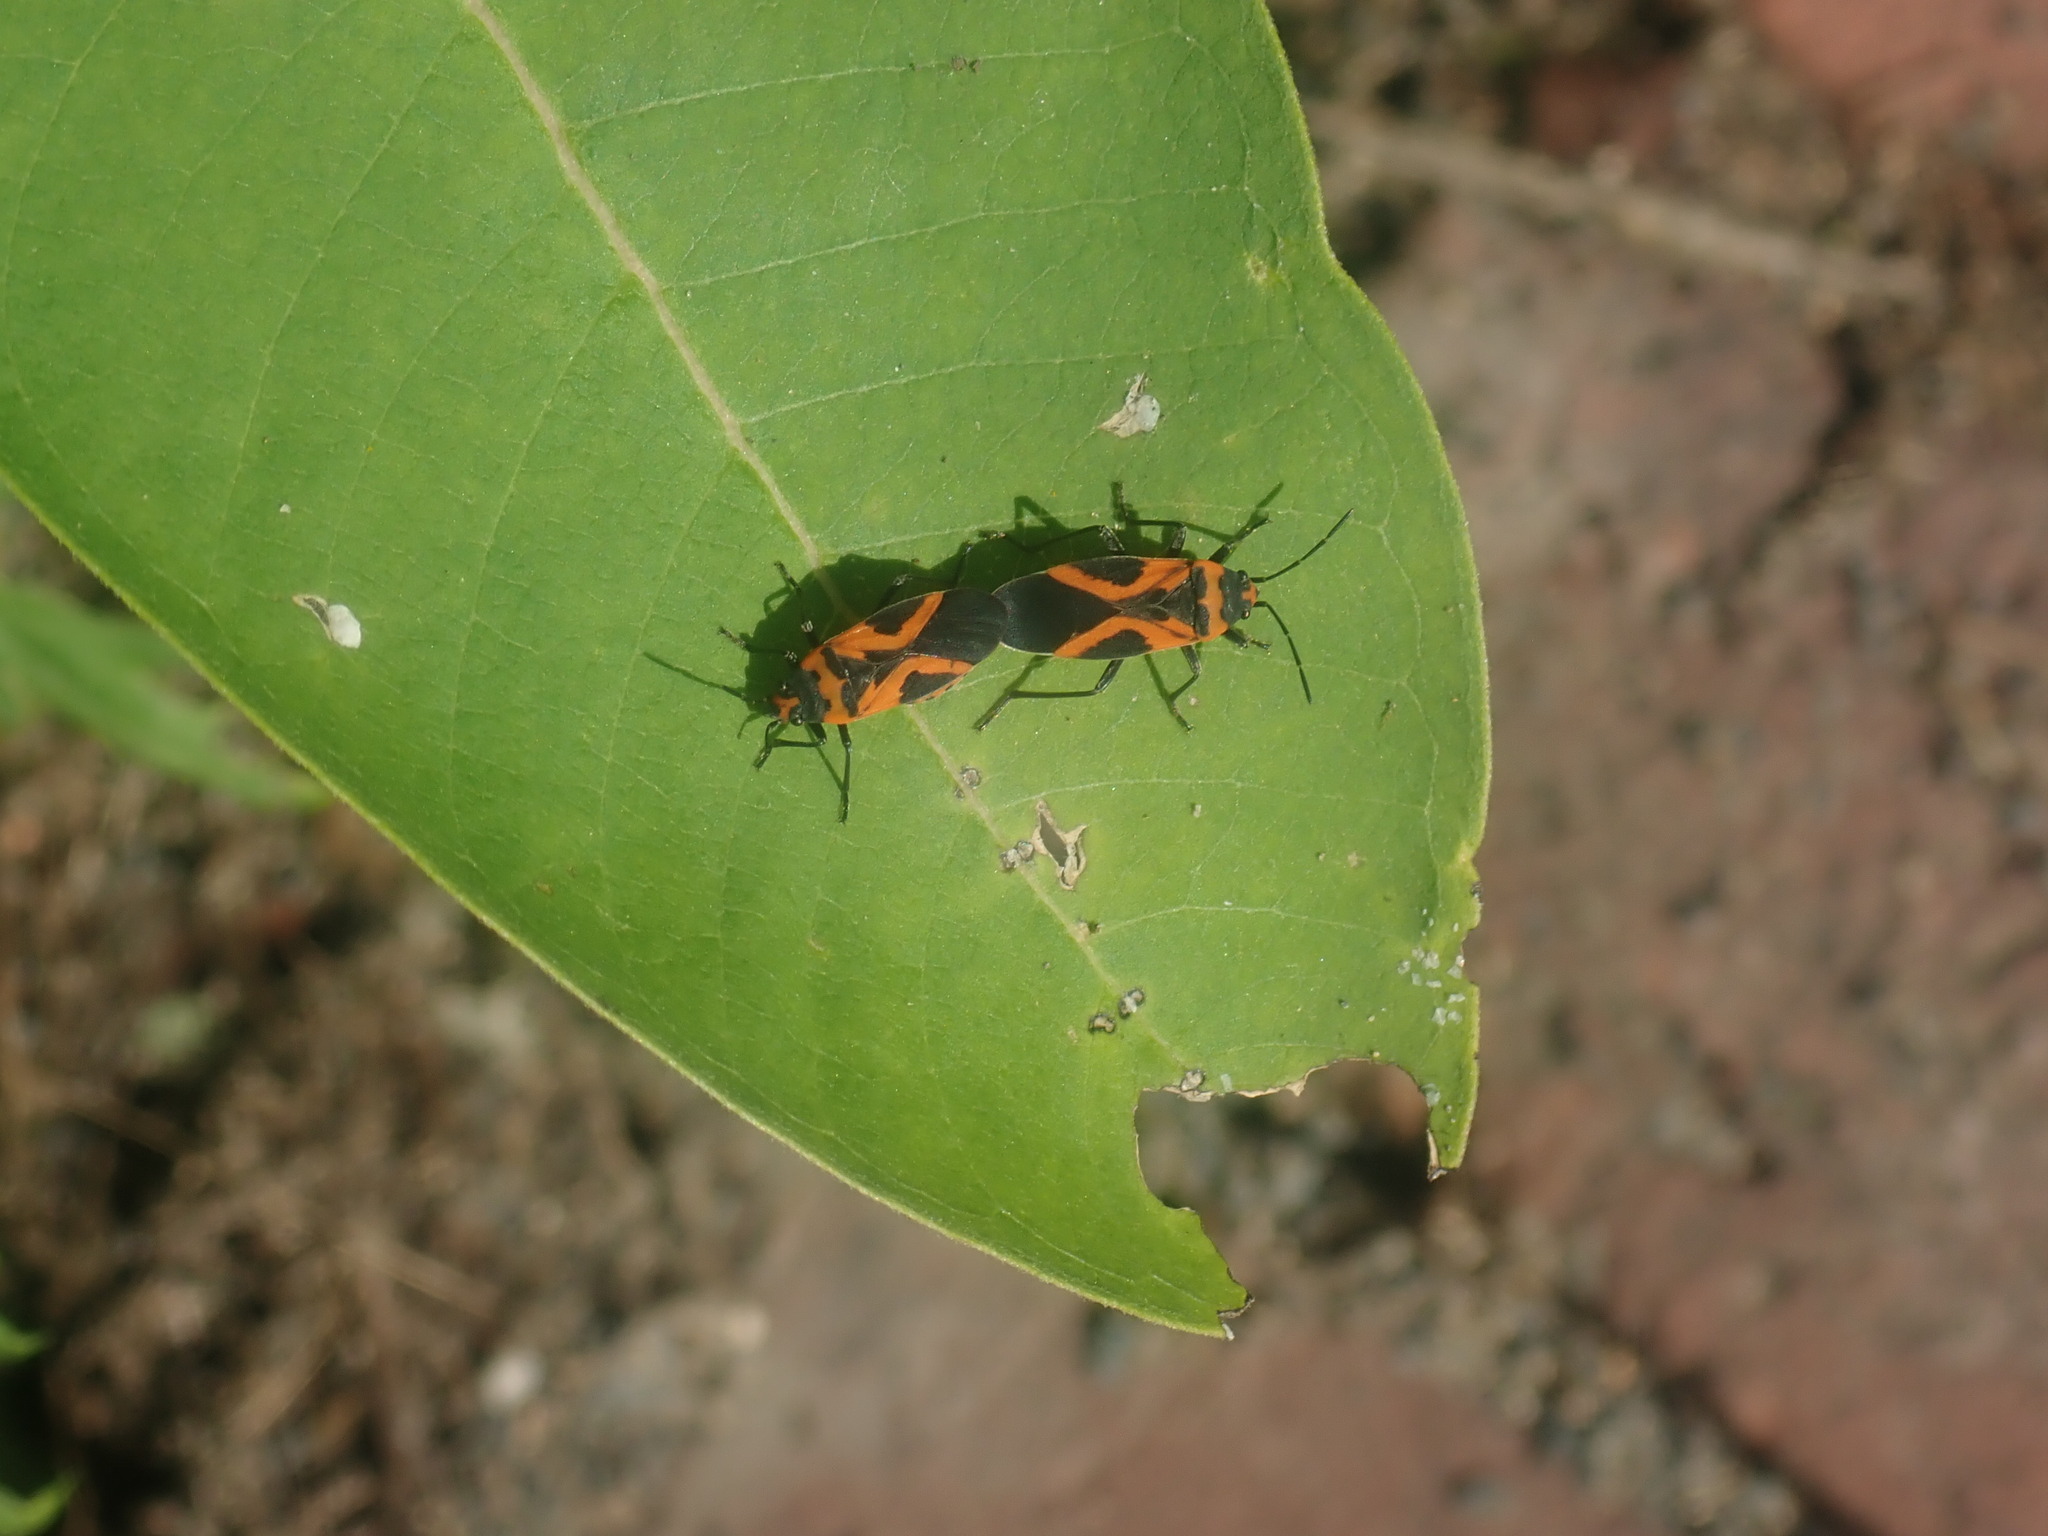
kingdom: Animalia
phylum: Arthropoda
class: Insecta
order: Hemiptera
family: Lygaeidae
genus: Lygaeus
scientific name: Lygaeus turcicus
